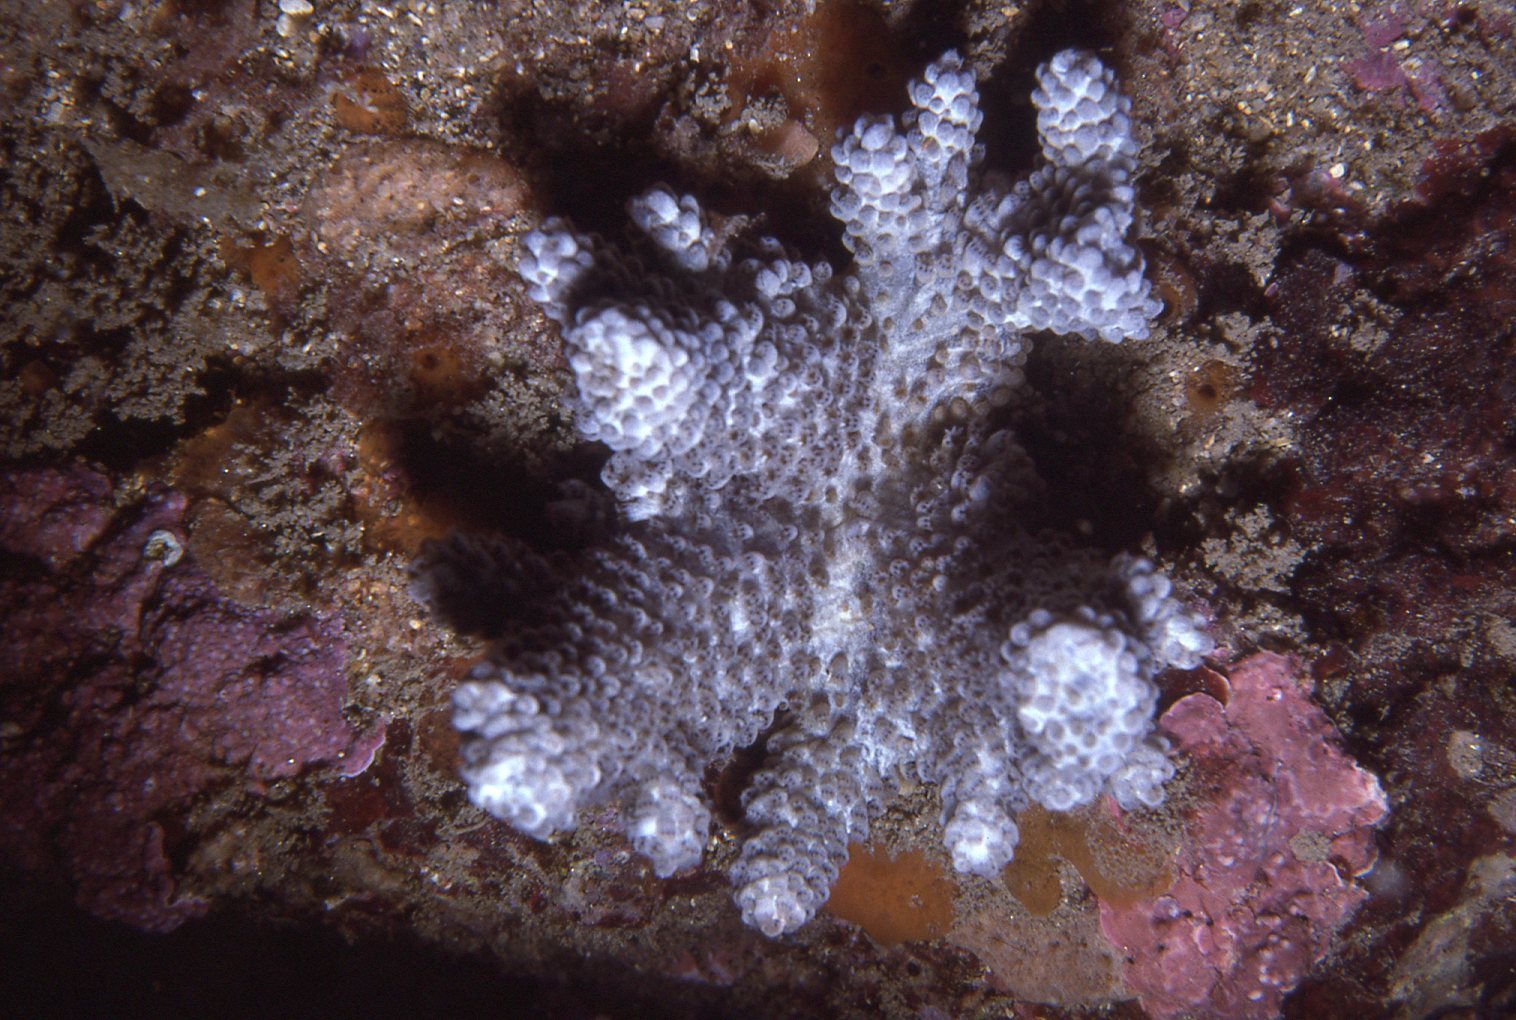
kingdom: Animalia
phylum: Cnidaria
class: Anthozoa
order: Malacalcyonacea
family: Capnellidae
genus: Capnella
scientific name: Capnella gaboensis
